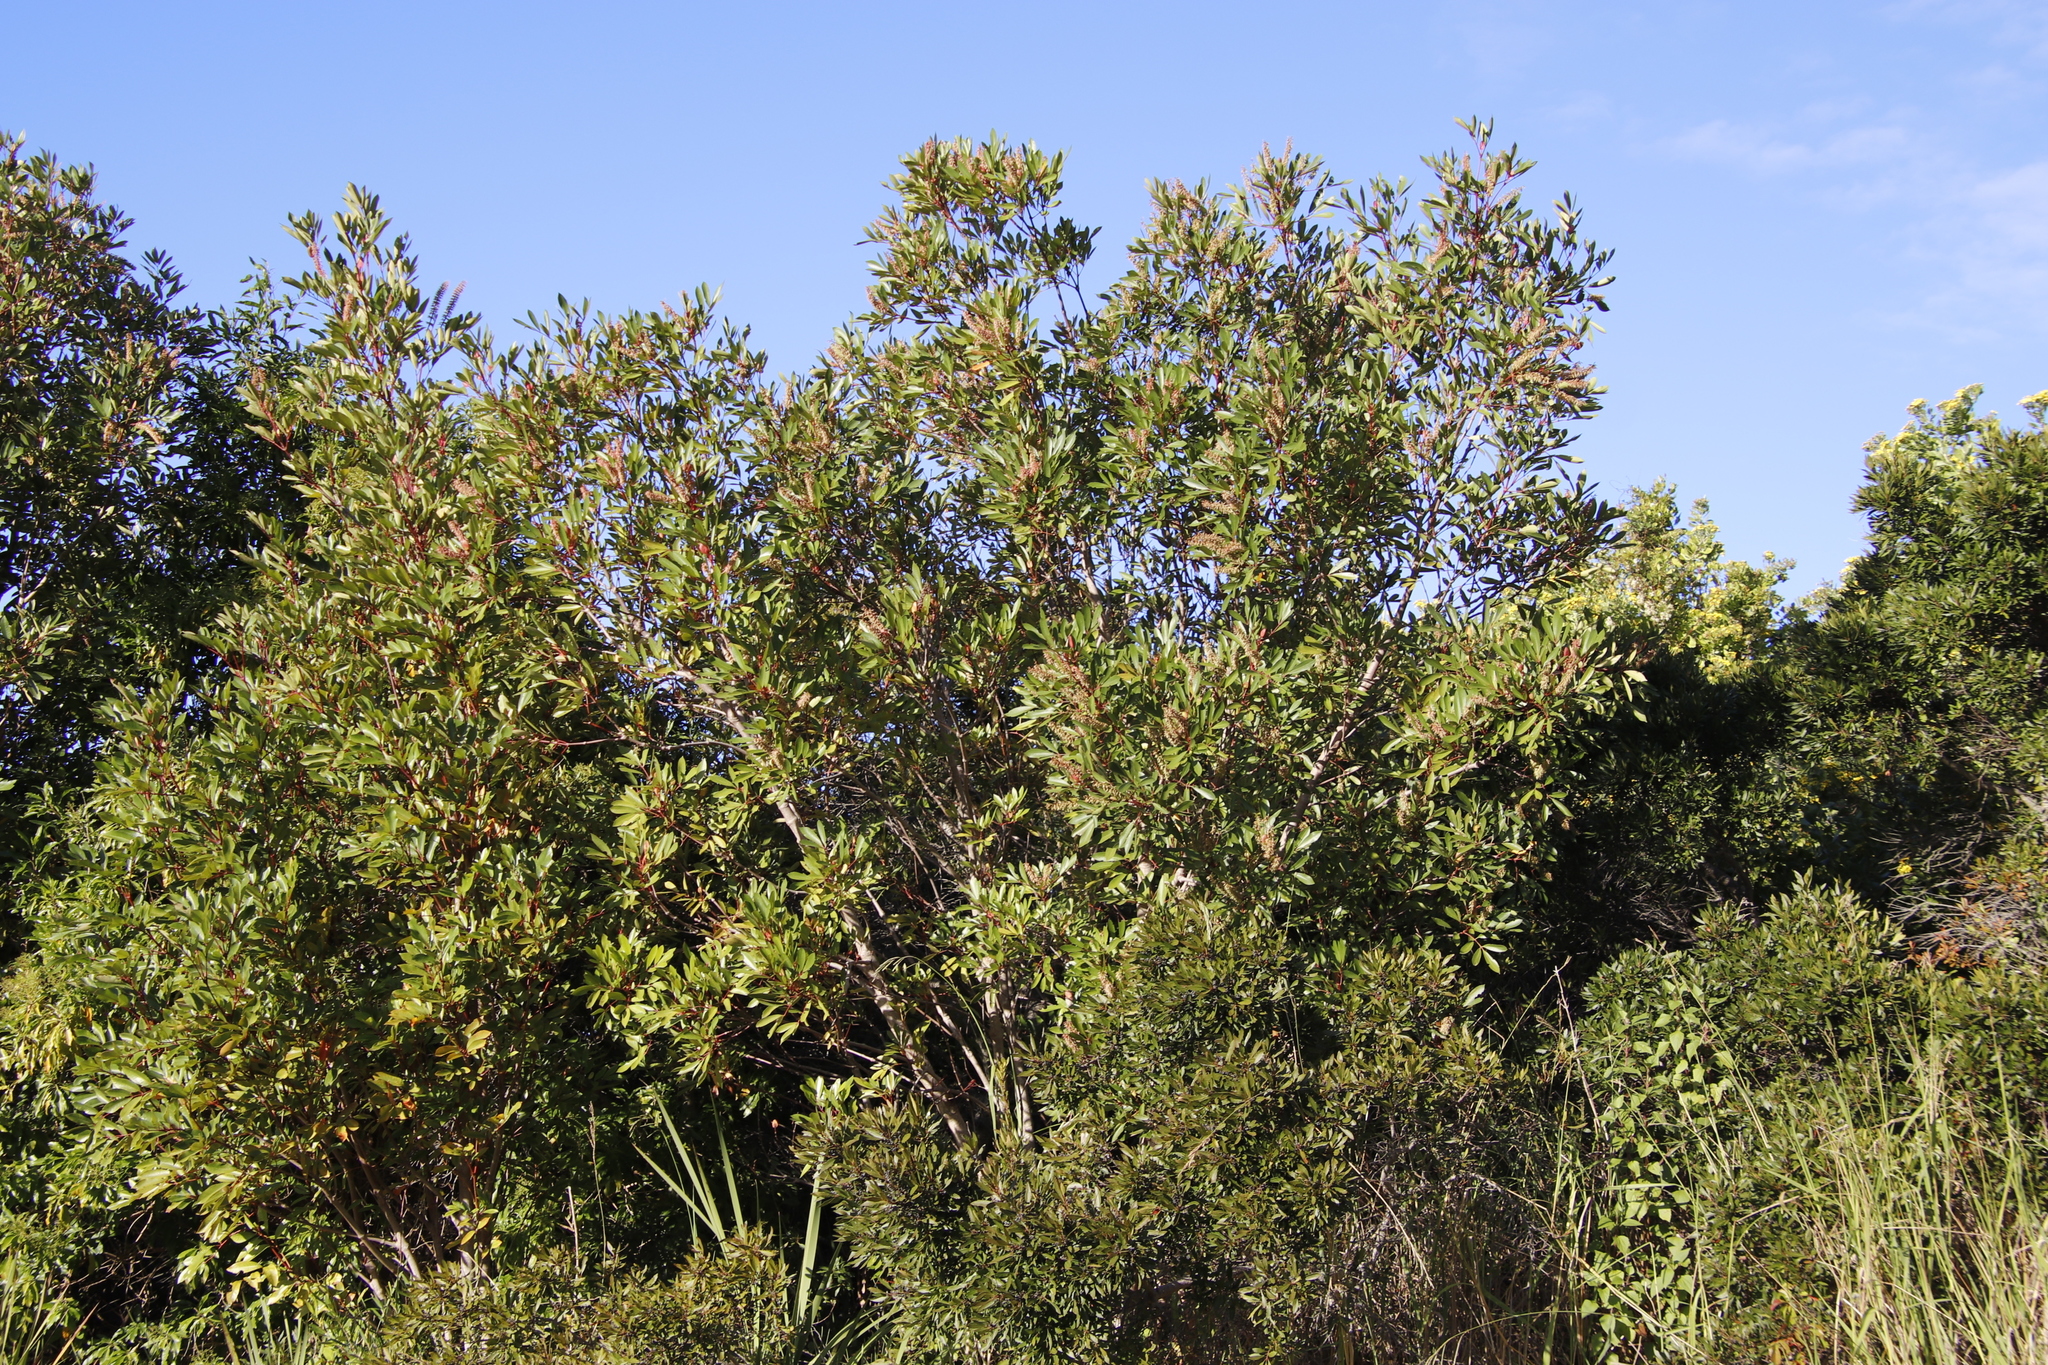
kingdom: Plantae
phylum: Tracheophyta
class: Magnoliopsida
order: Oxalidales
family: Cunoniaceae
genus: Cunonia
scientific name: Cunonia capensis
